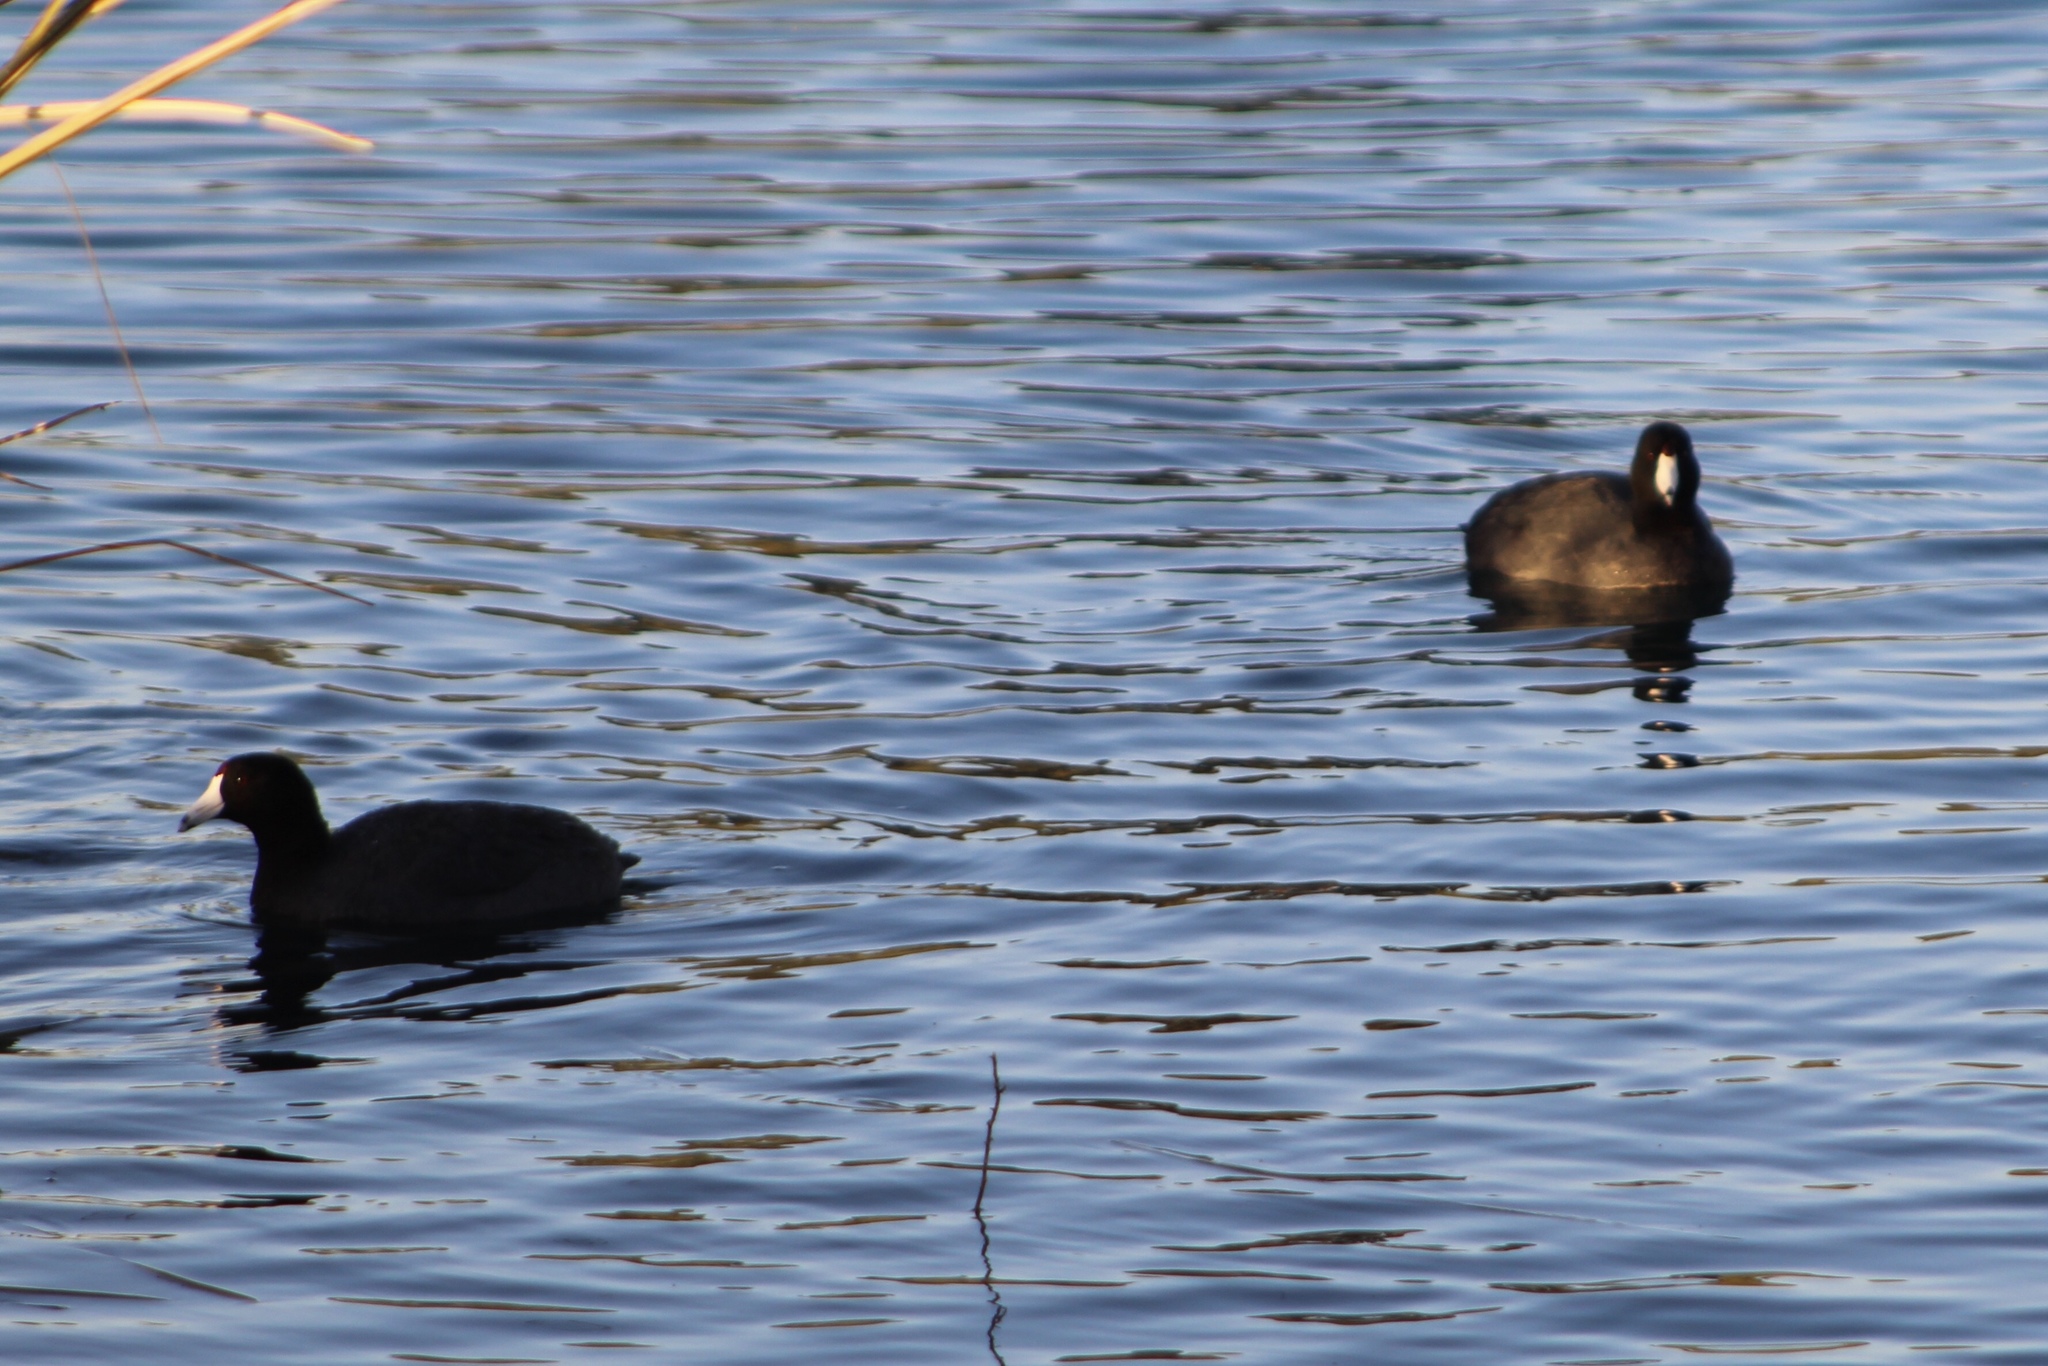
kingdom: Animalia
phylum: Chordata
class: Aves
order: Gruiformes
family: Rallidae
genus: Fulica
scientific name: Fulica americana
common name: American coot
